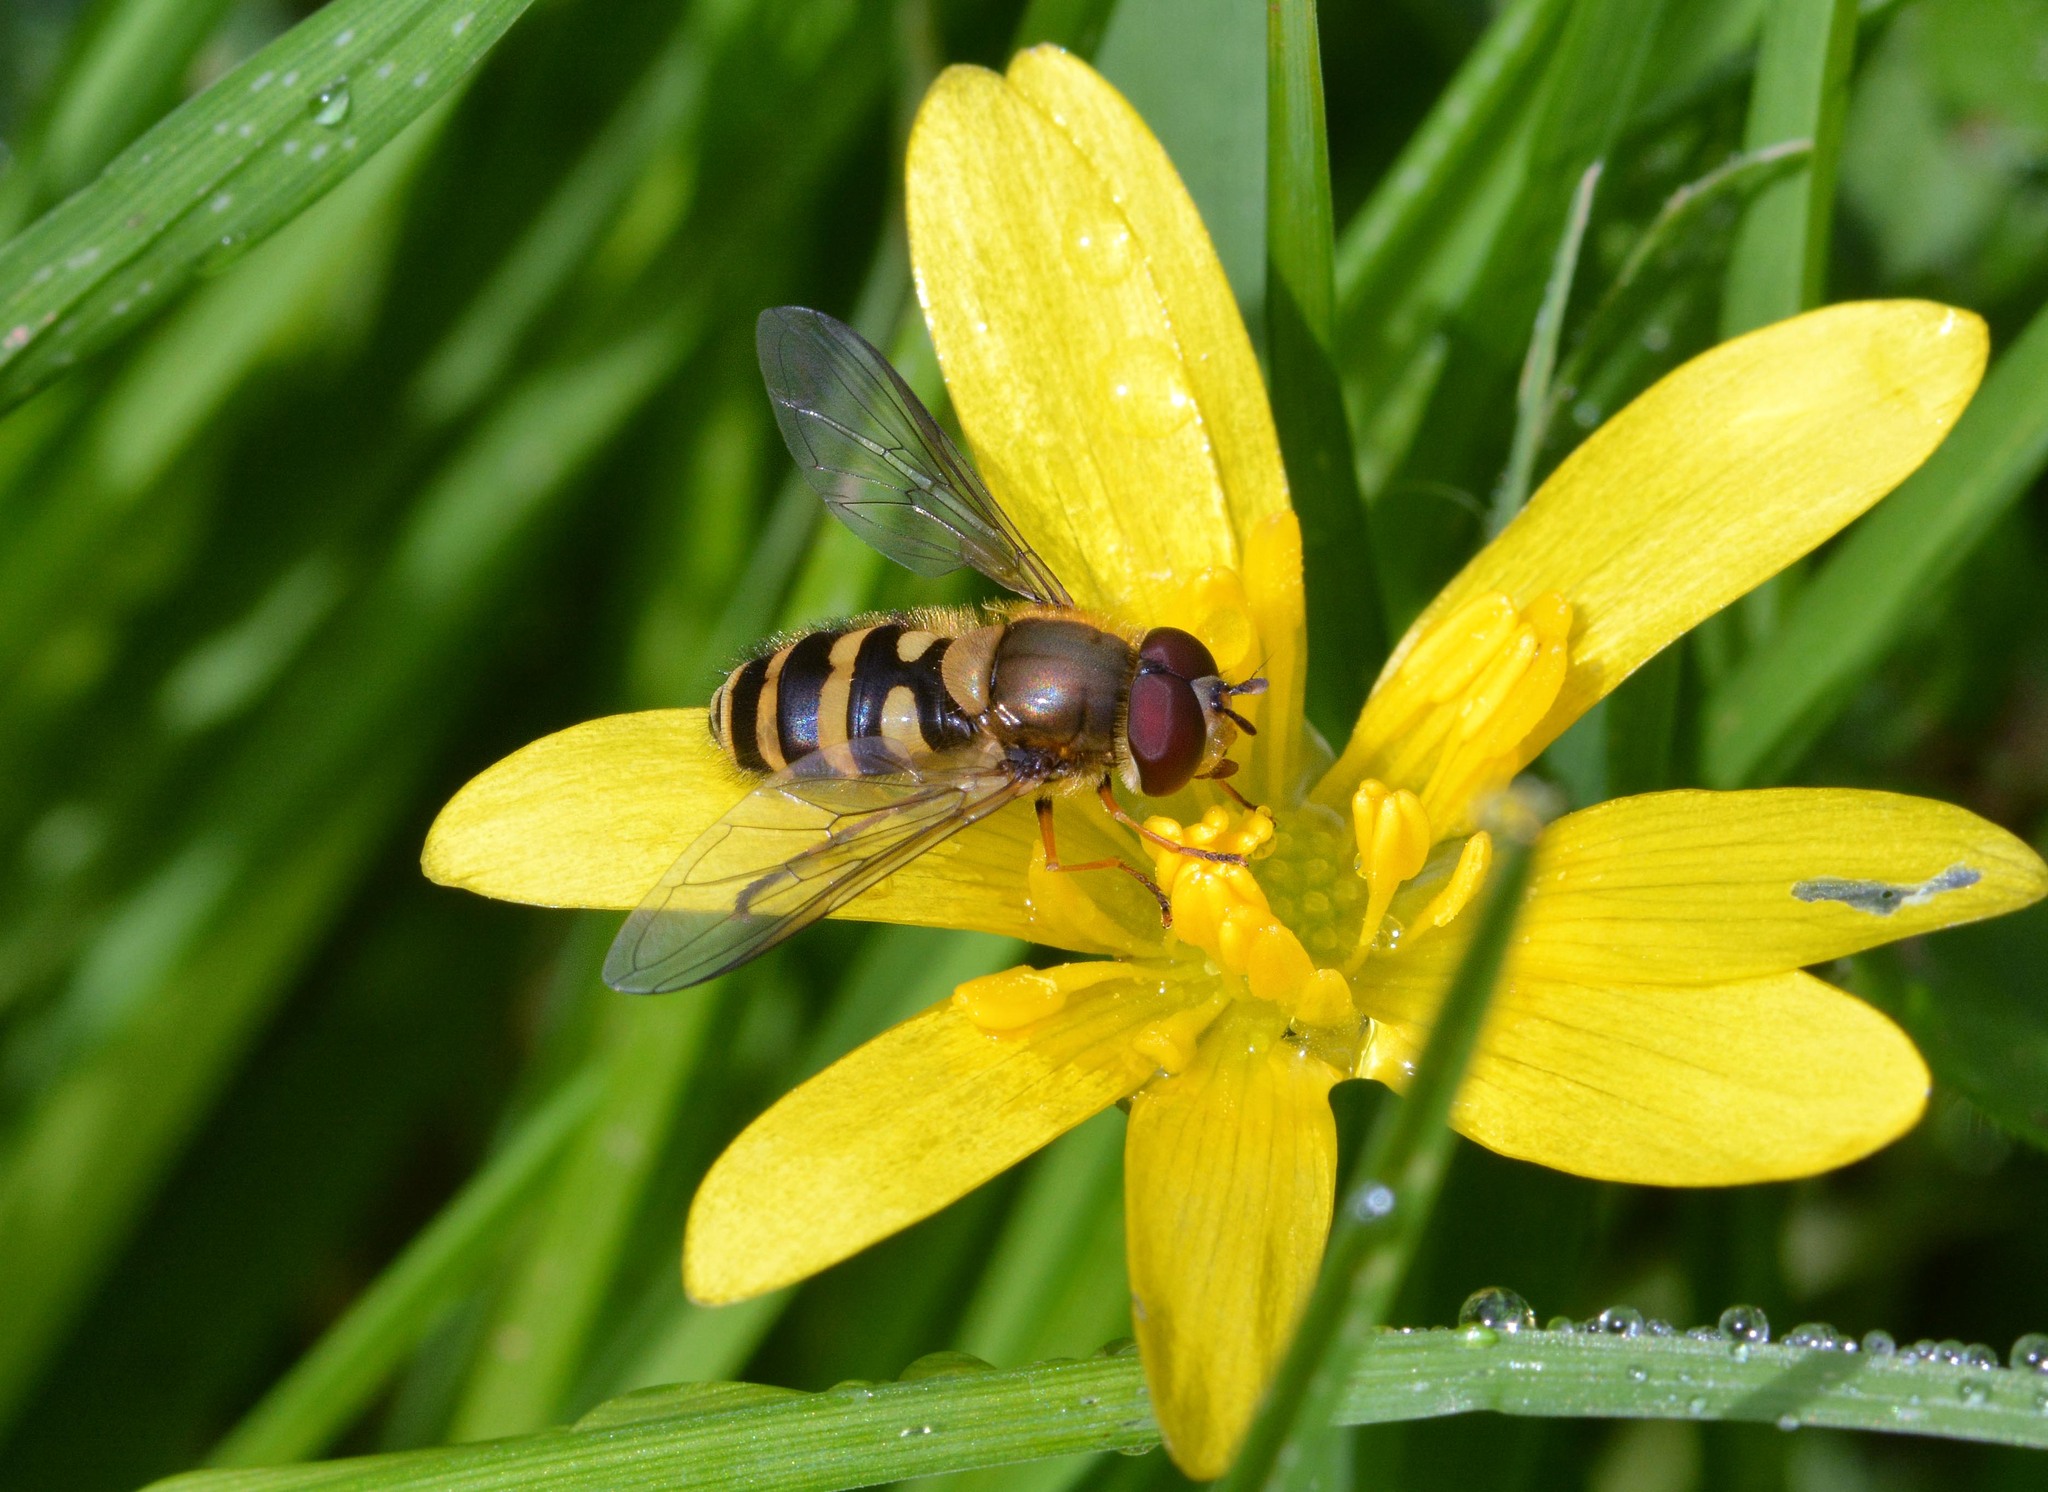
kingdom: Animalia
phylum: Arthropoda
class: Insecta
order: Diptera
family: Syrphidae
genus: Syrphus
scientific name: Syrphus
